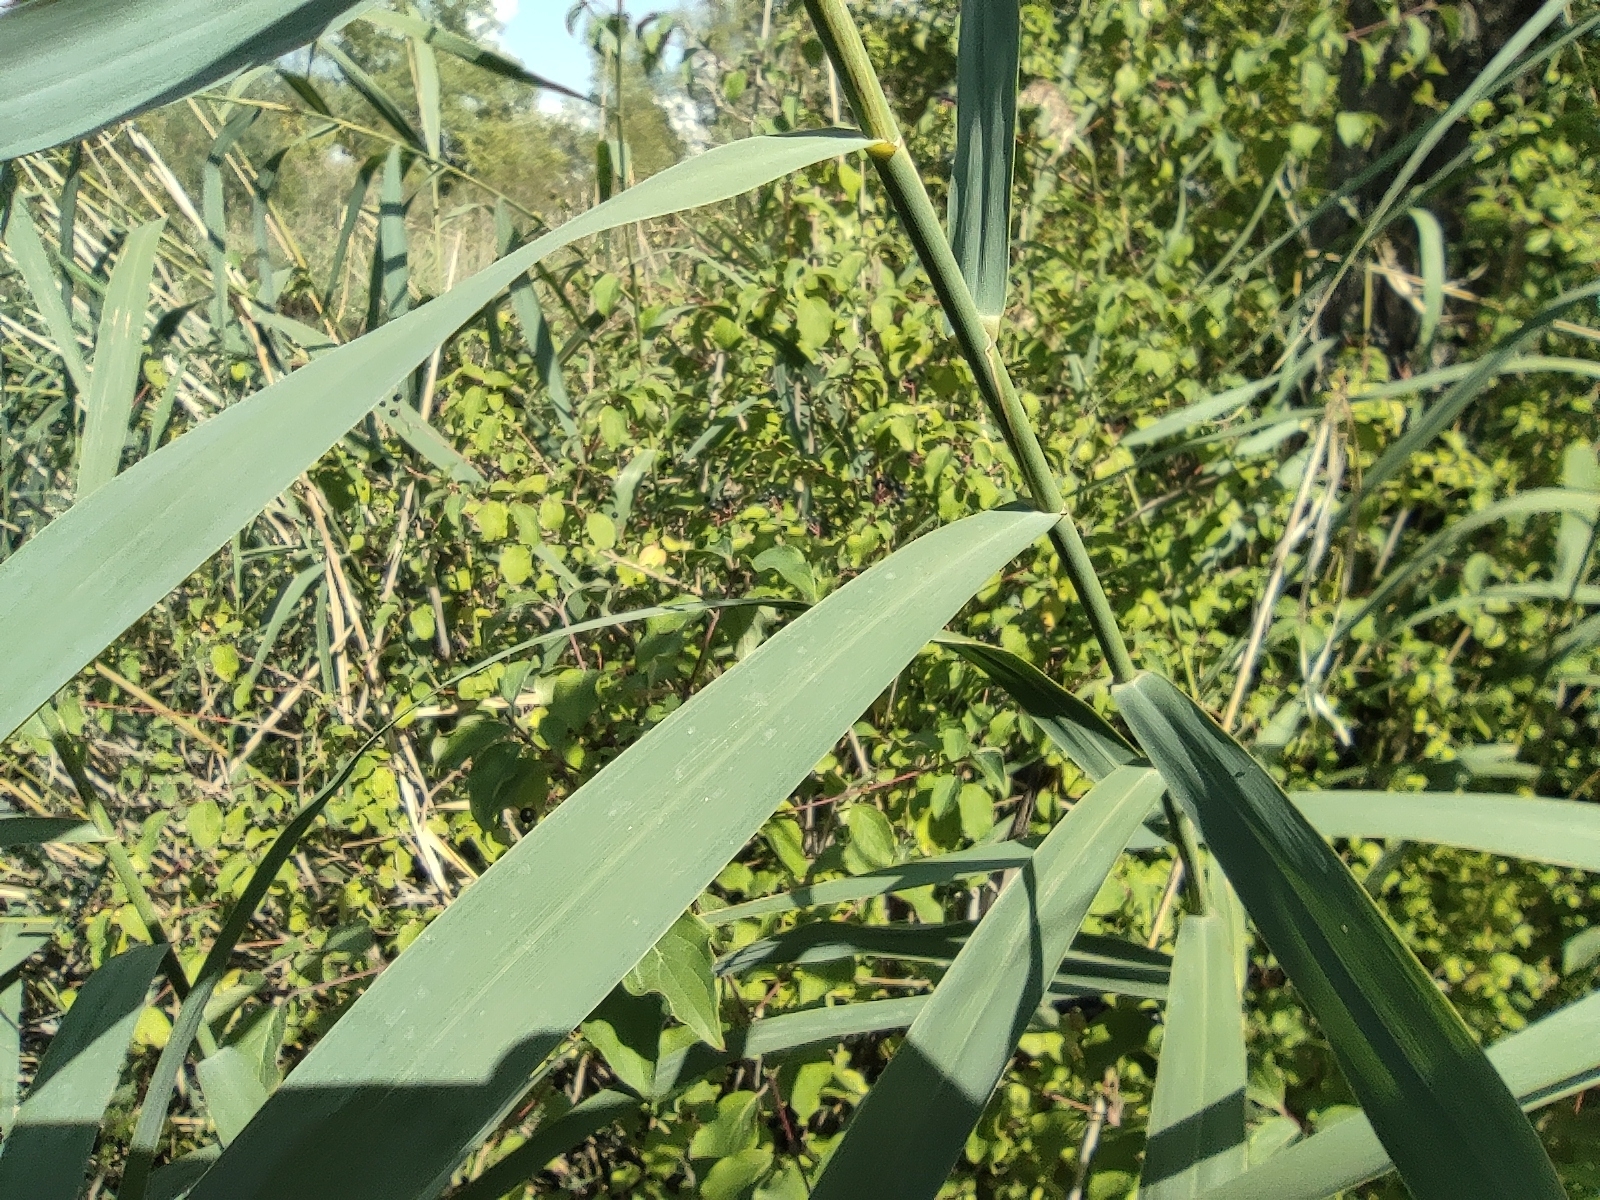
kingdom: Plantae
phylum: Tracheophyta
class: Liliopsida
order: Poales
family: Poaceae
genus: Phragmites
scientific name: Phragmites australis
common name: Common reed
